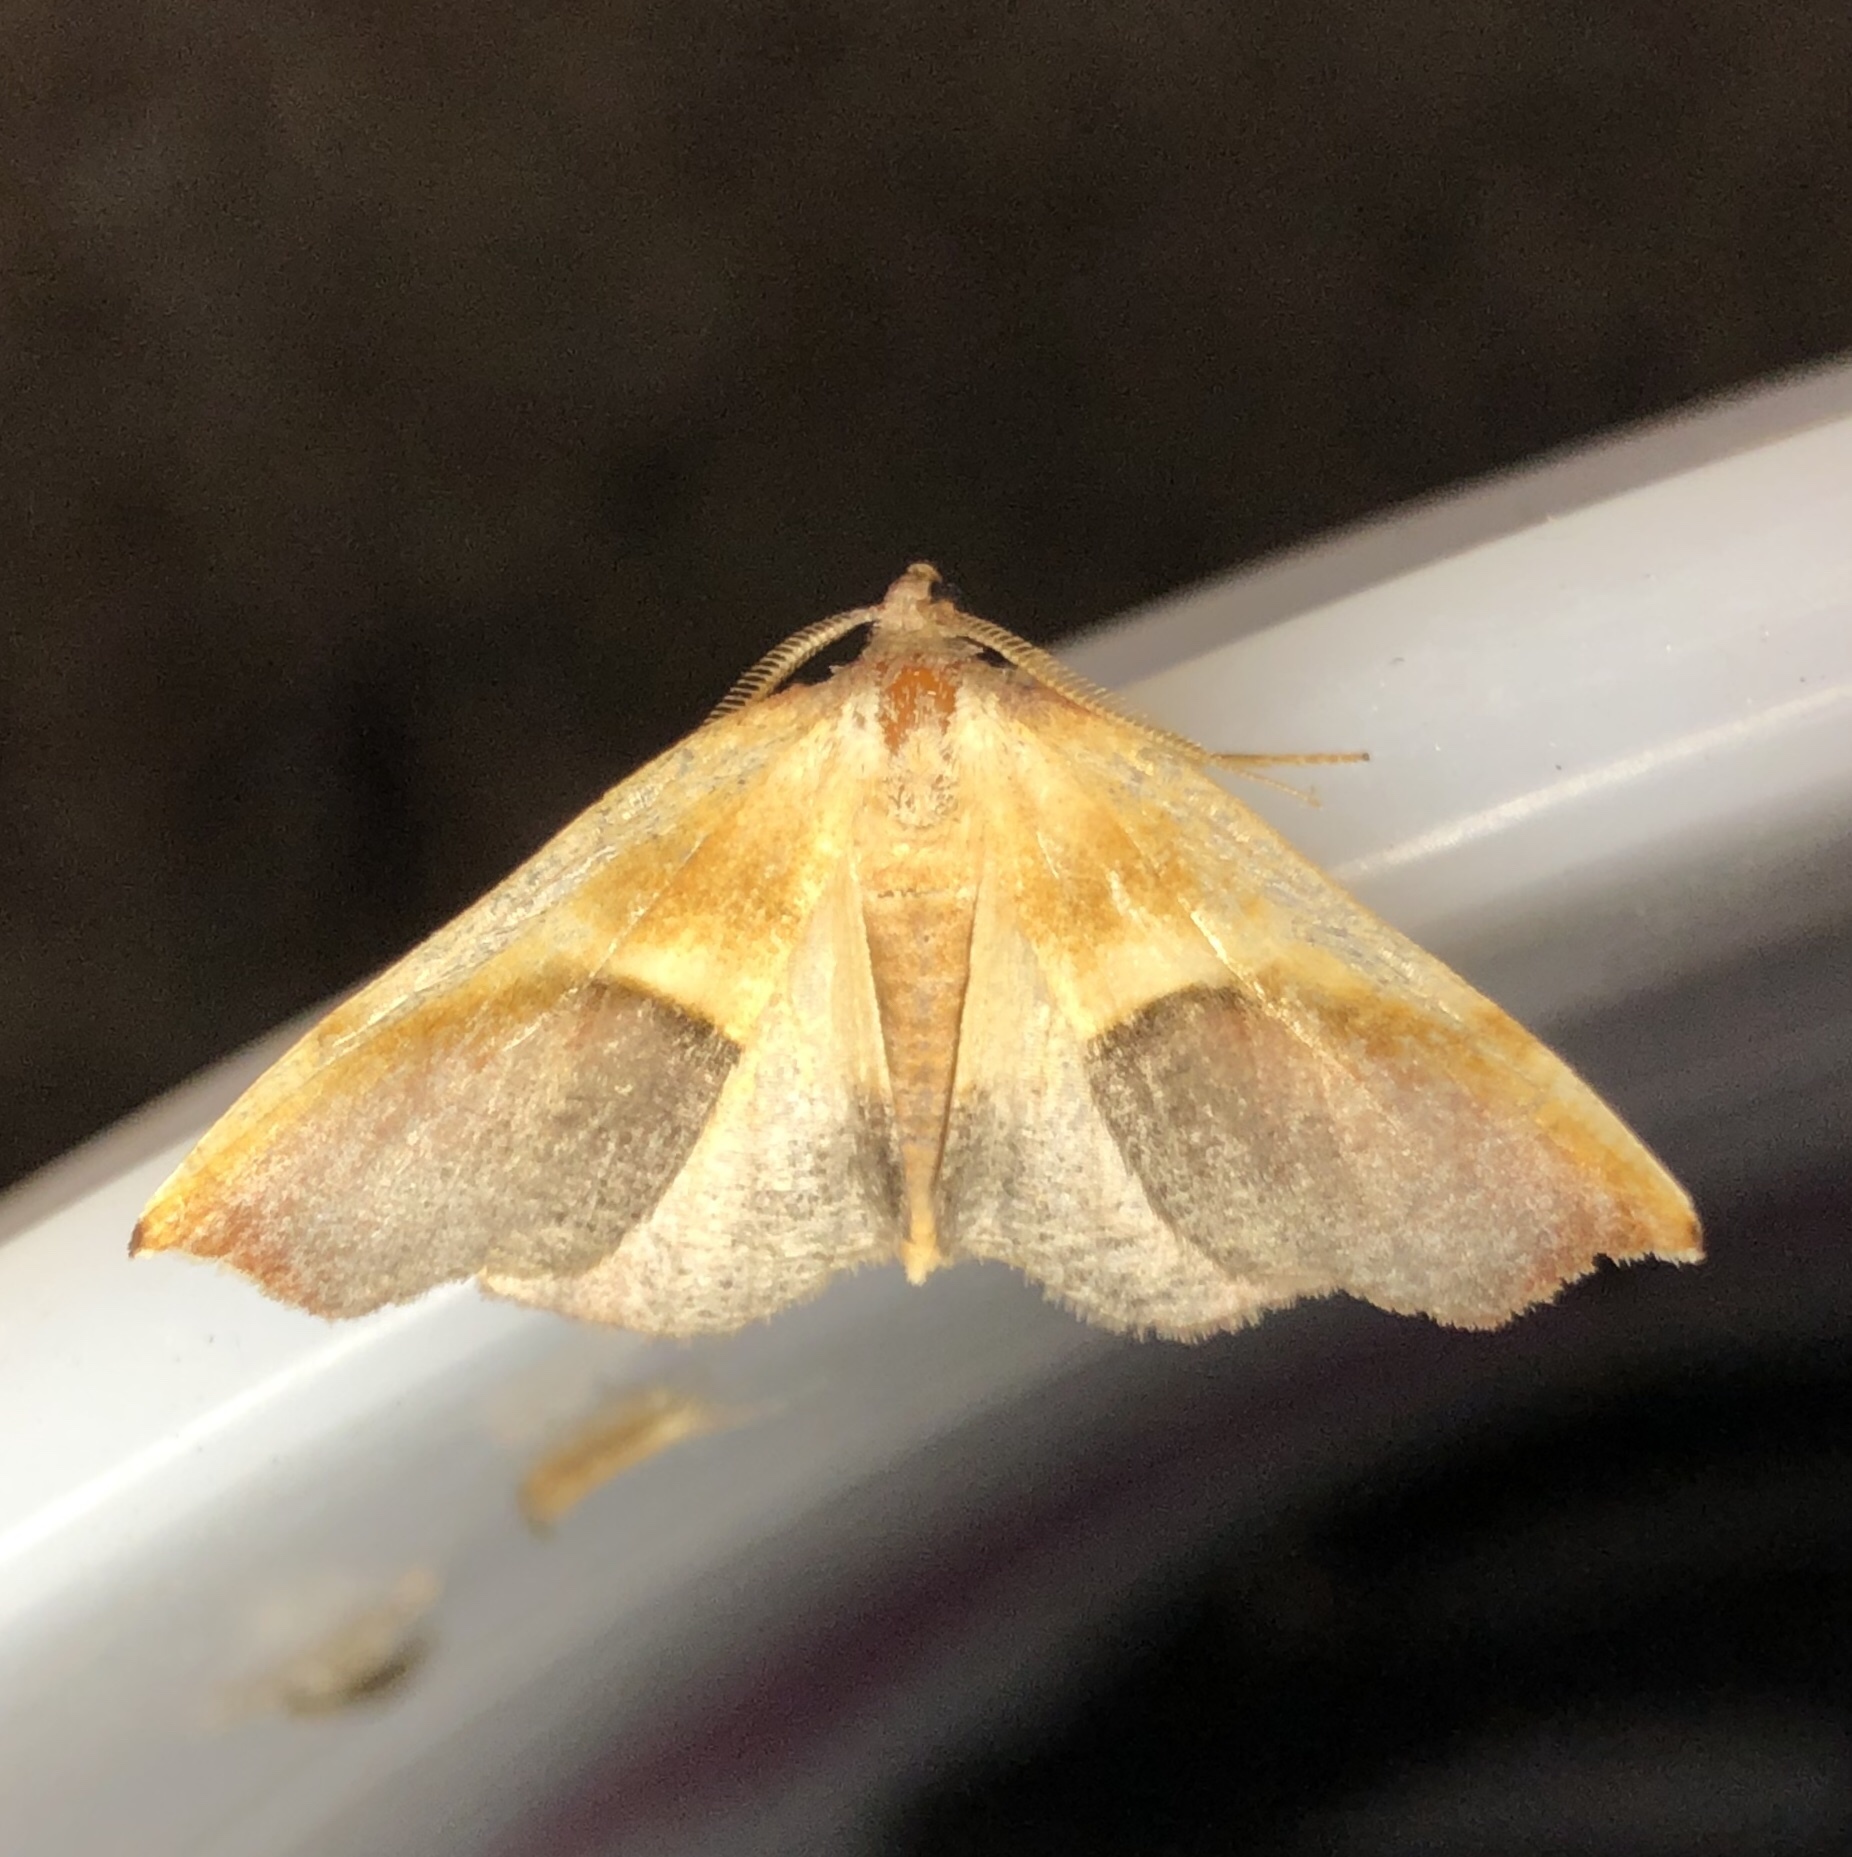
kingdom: Animalia
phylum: Arthropoda
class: Insecta
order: Lepidoptera
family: Geometridae
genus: Plagodis
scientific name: Plagodis kuetzingi
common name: Purple plagodis
